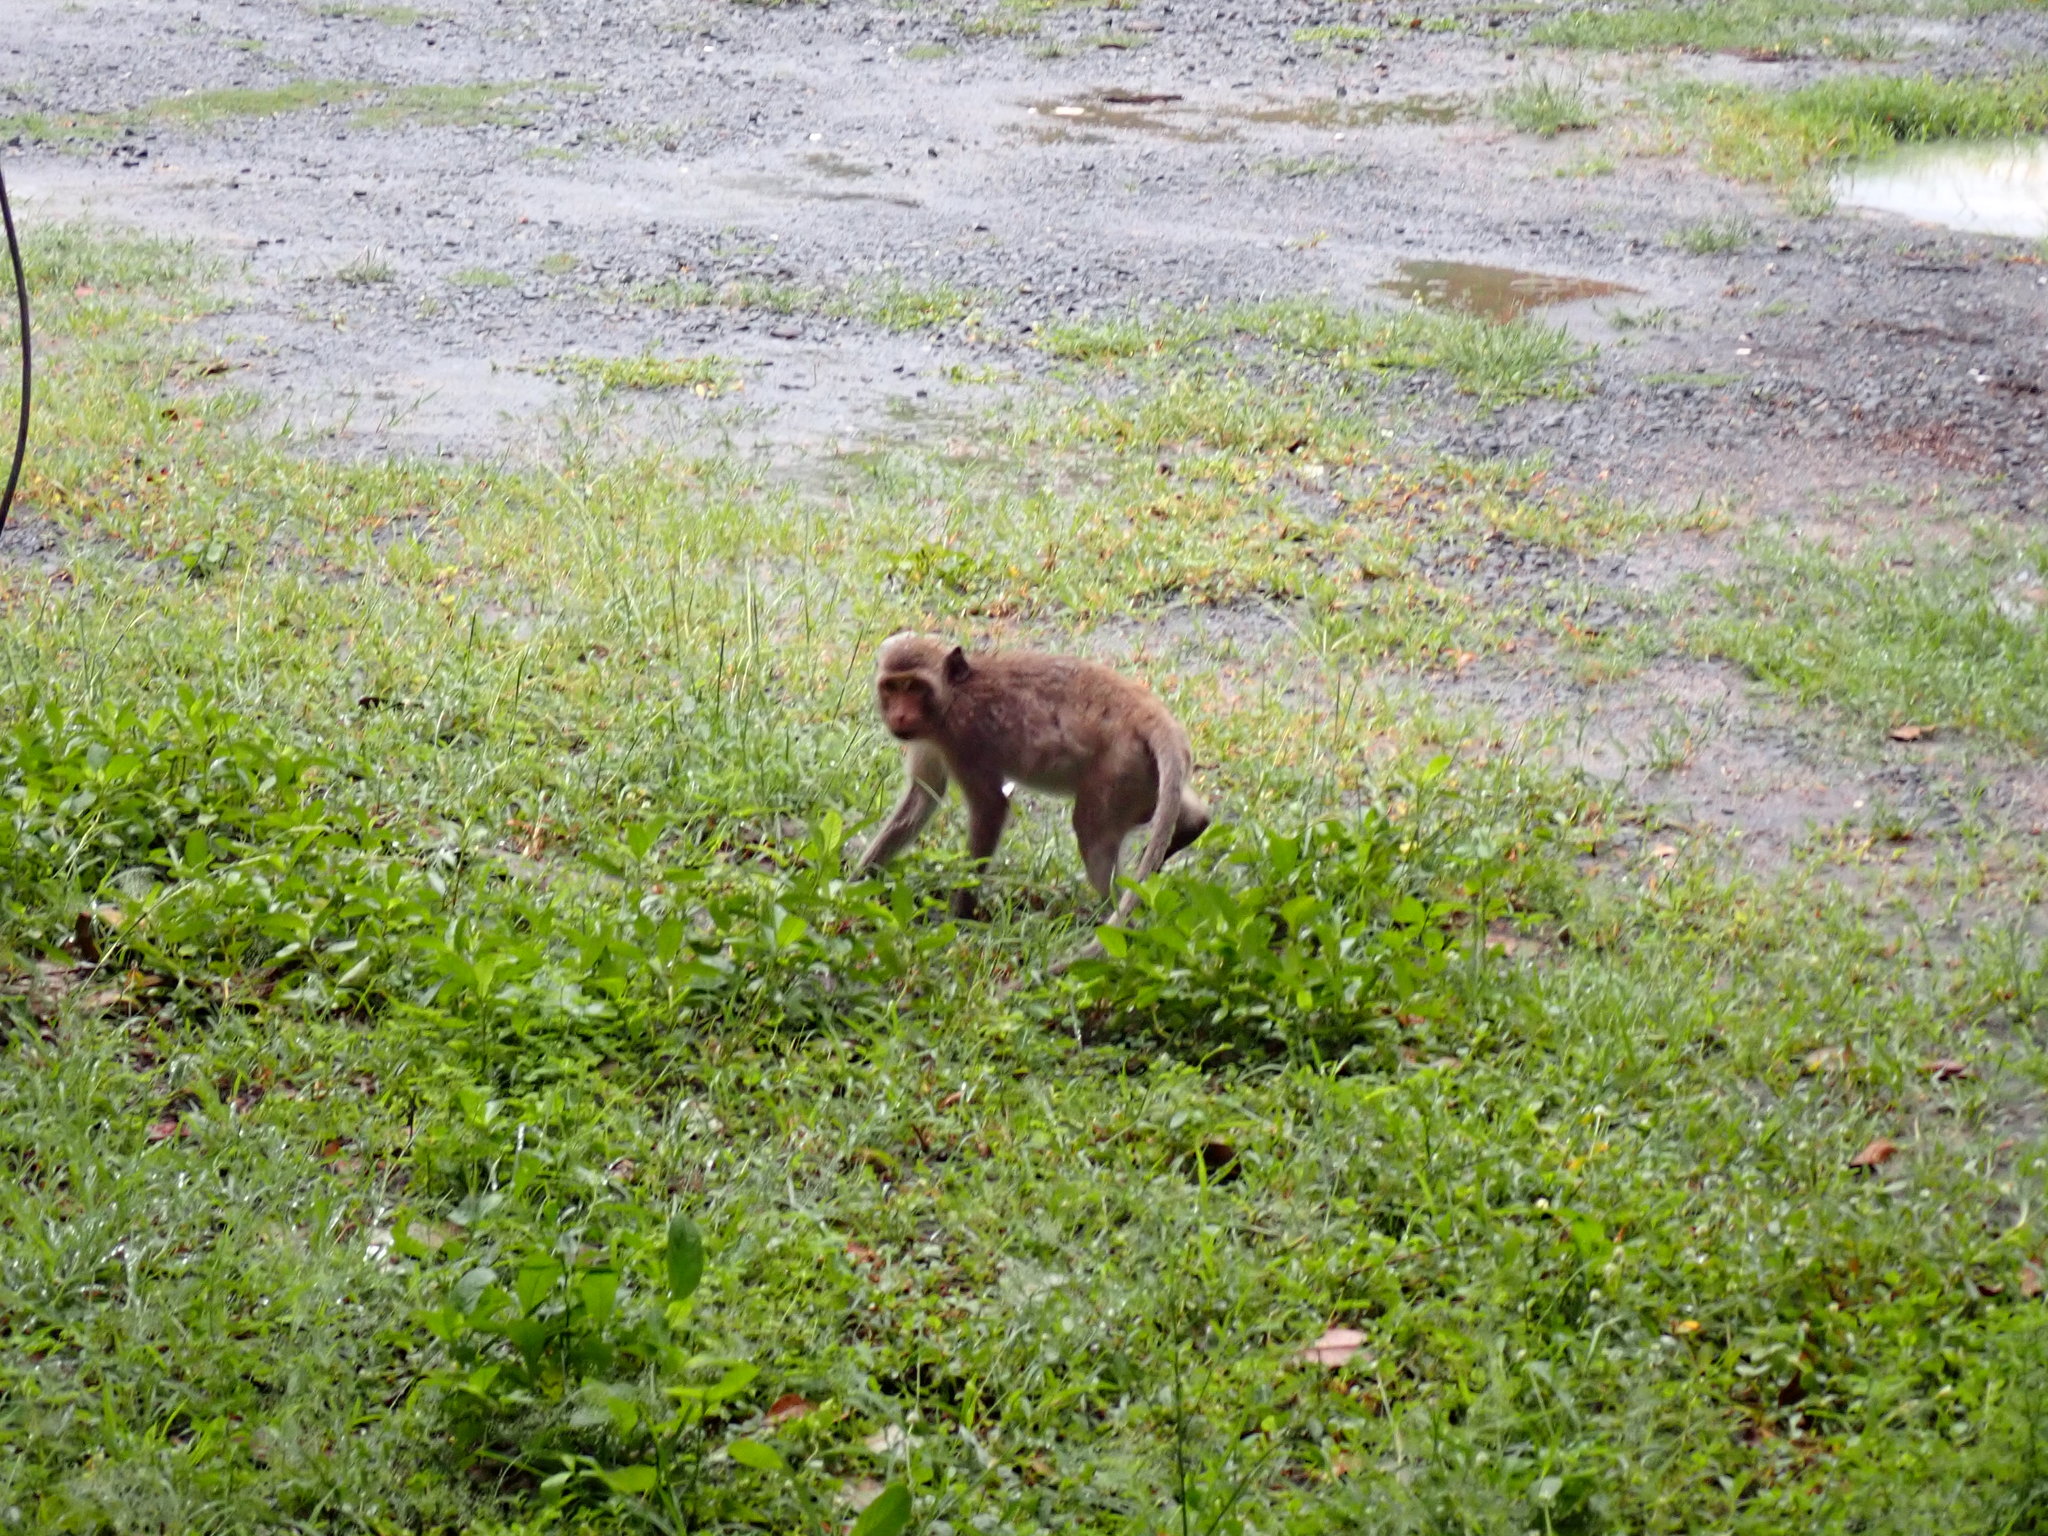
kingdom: Animalia
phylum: Chordata
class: Mammalia
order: Primates
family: Cercopithecidae
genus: Macaca
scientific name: Macaca fascicularis
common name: Crab-eating macaque
